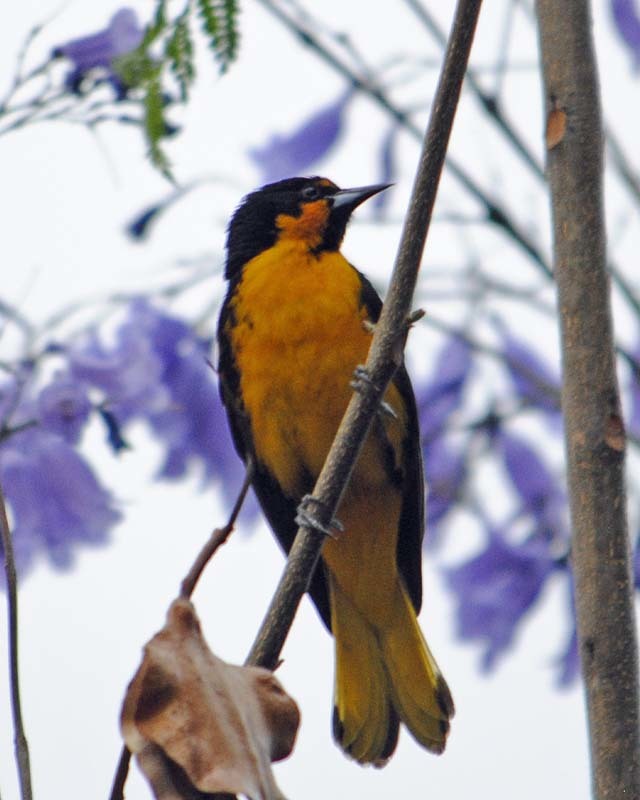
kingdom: Animalia
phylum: Chordata
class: Aves
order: Passeriformes
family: Icteridae
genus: Icterus
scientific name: Icterus abeillei
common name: Black-backed oriole
